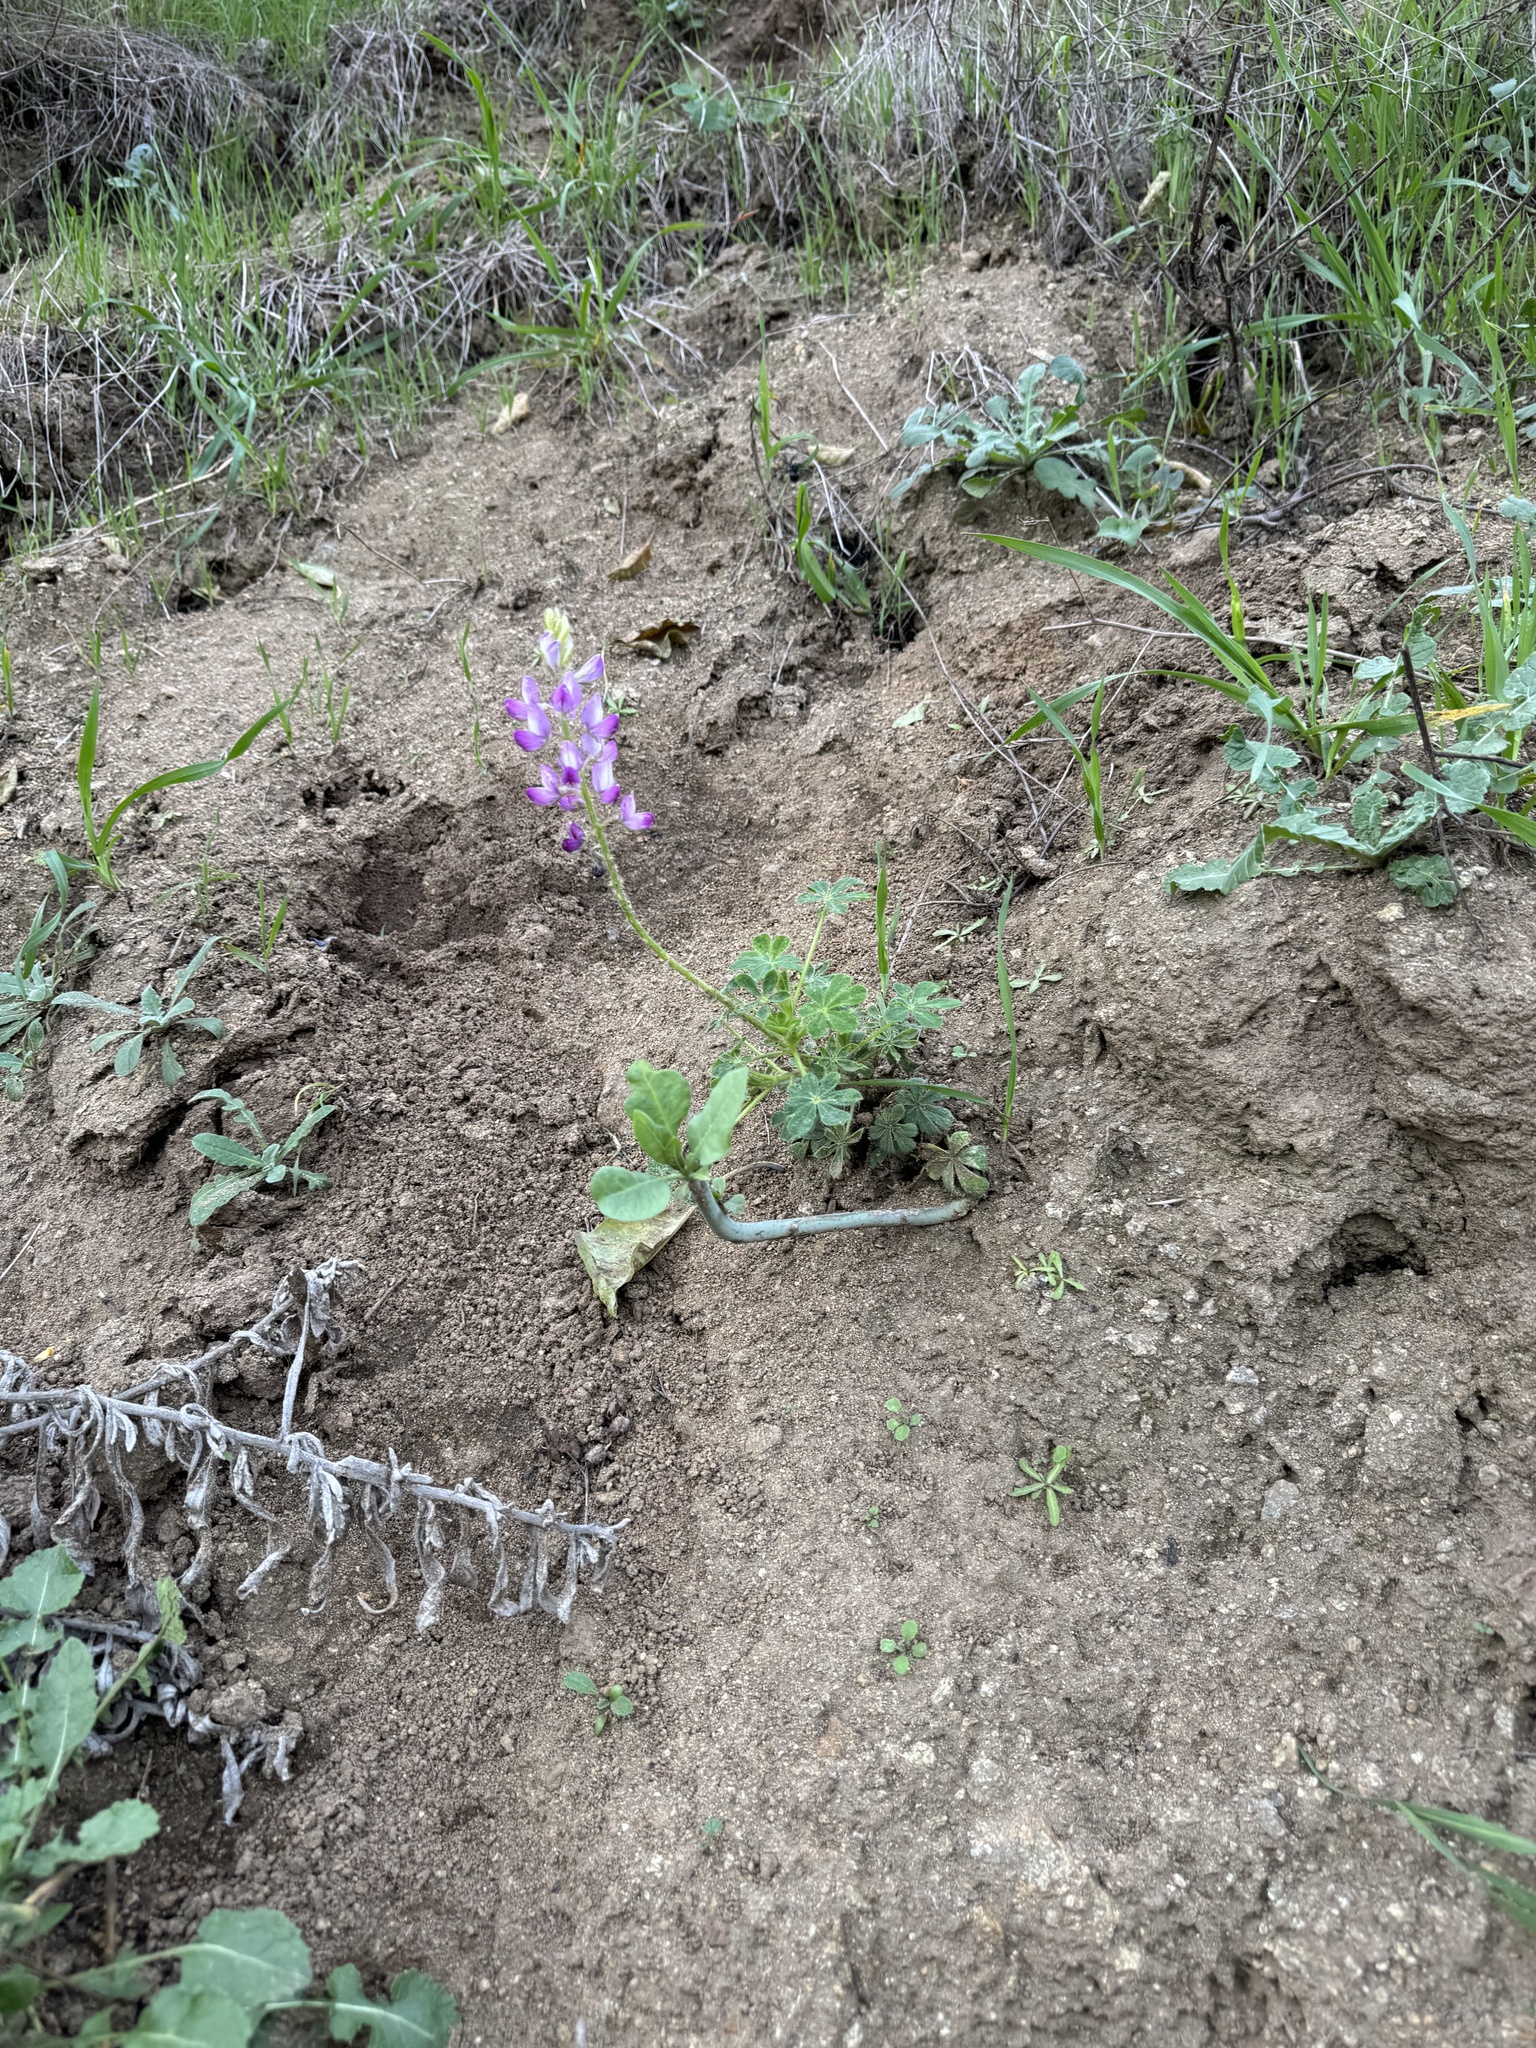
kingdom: Plantae
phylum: Tracheophyta
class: Magnoliopsida
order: Fabales
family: Fabaceae
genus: Lupinus
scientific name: Lupinus hirsutissimus
